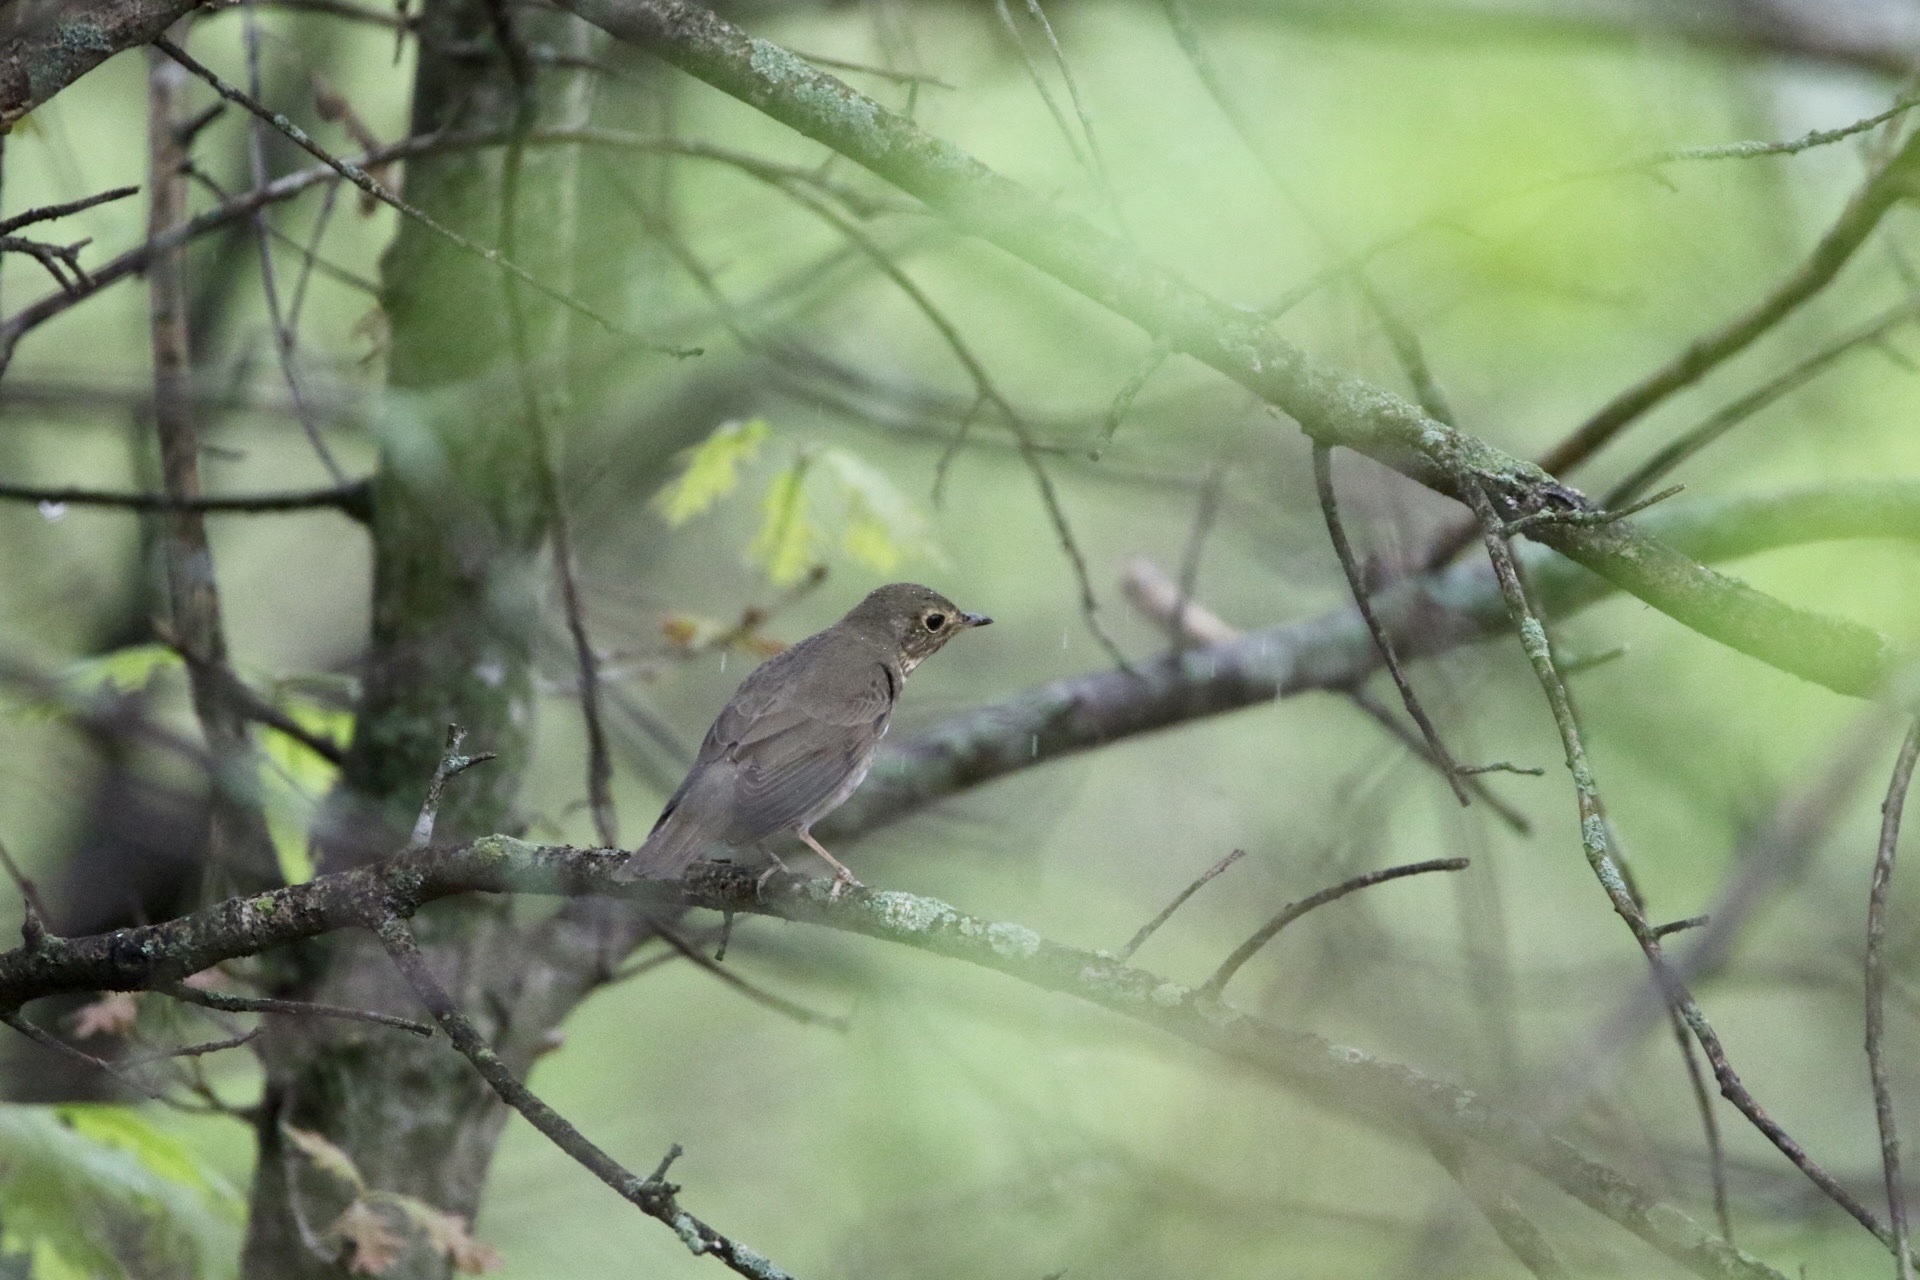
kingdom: Animalia
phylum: Chordata
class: Aves
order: Passeriformes
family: Turdidae
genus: Catharus
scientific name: Catharus ustulatus
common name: Swainson's thrush
